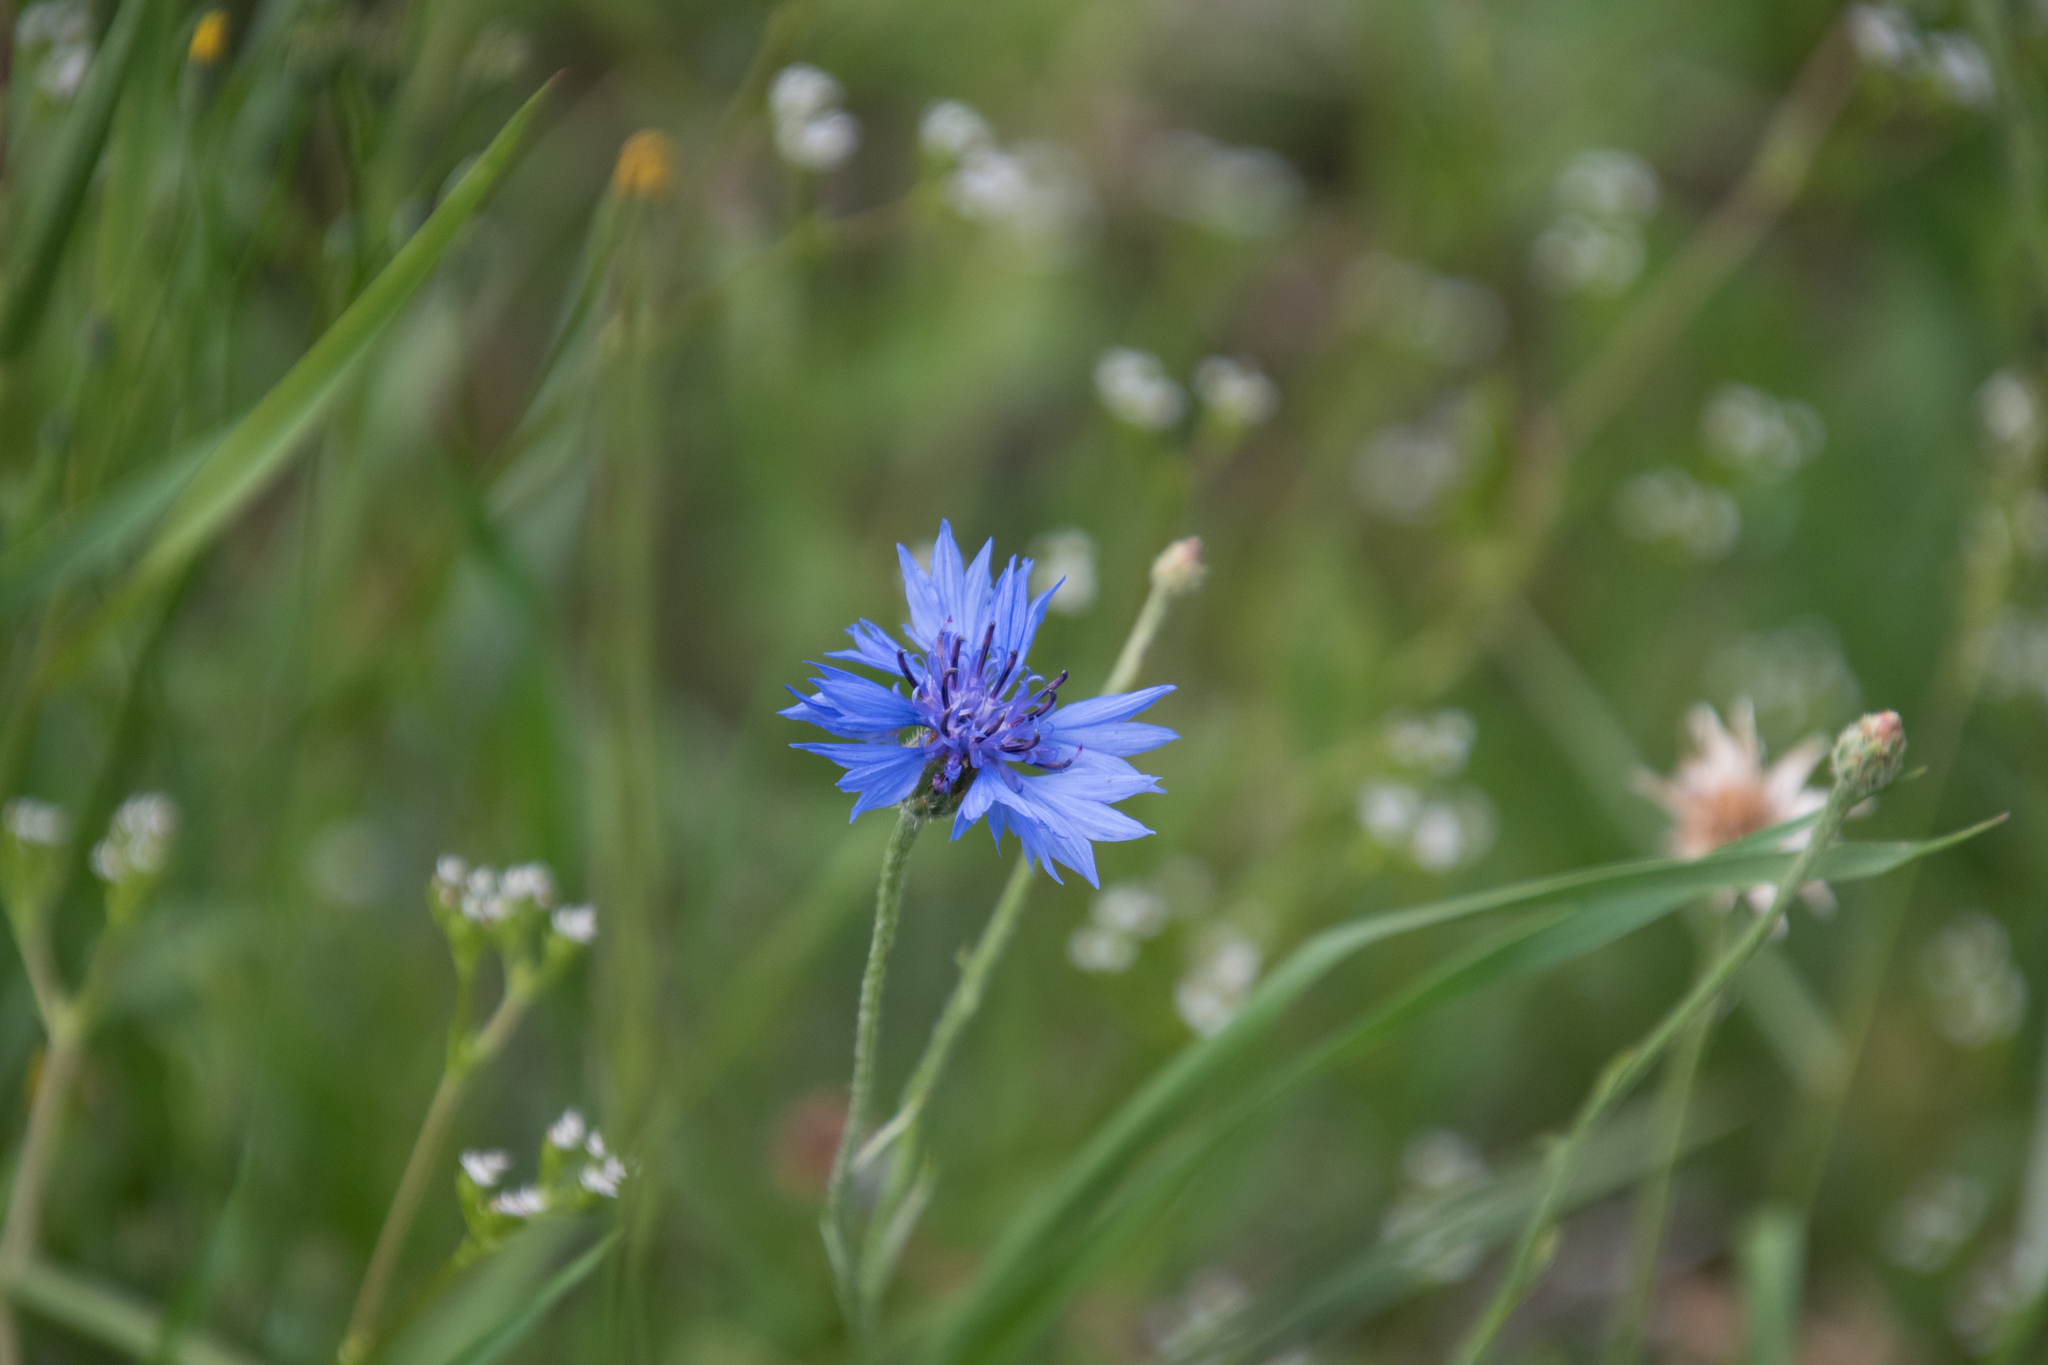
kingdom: Plantae
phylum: Tracheophyta
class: Magnoliopsida
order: Asterales
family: Asteraceae
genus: Centaurea
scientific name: Centaurea cyanus
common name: Cornflower
